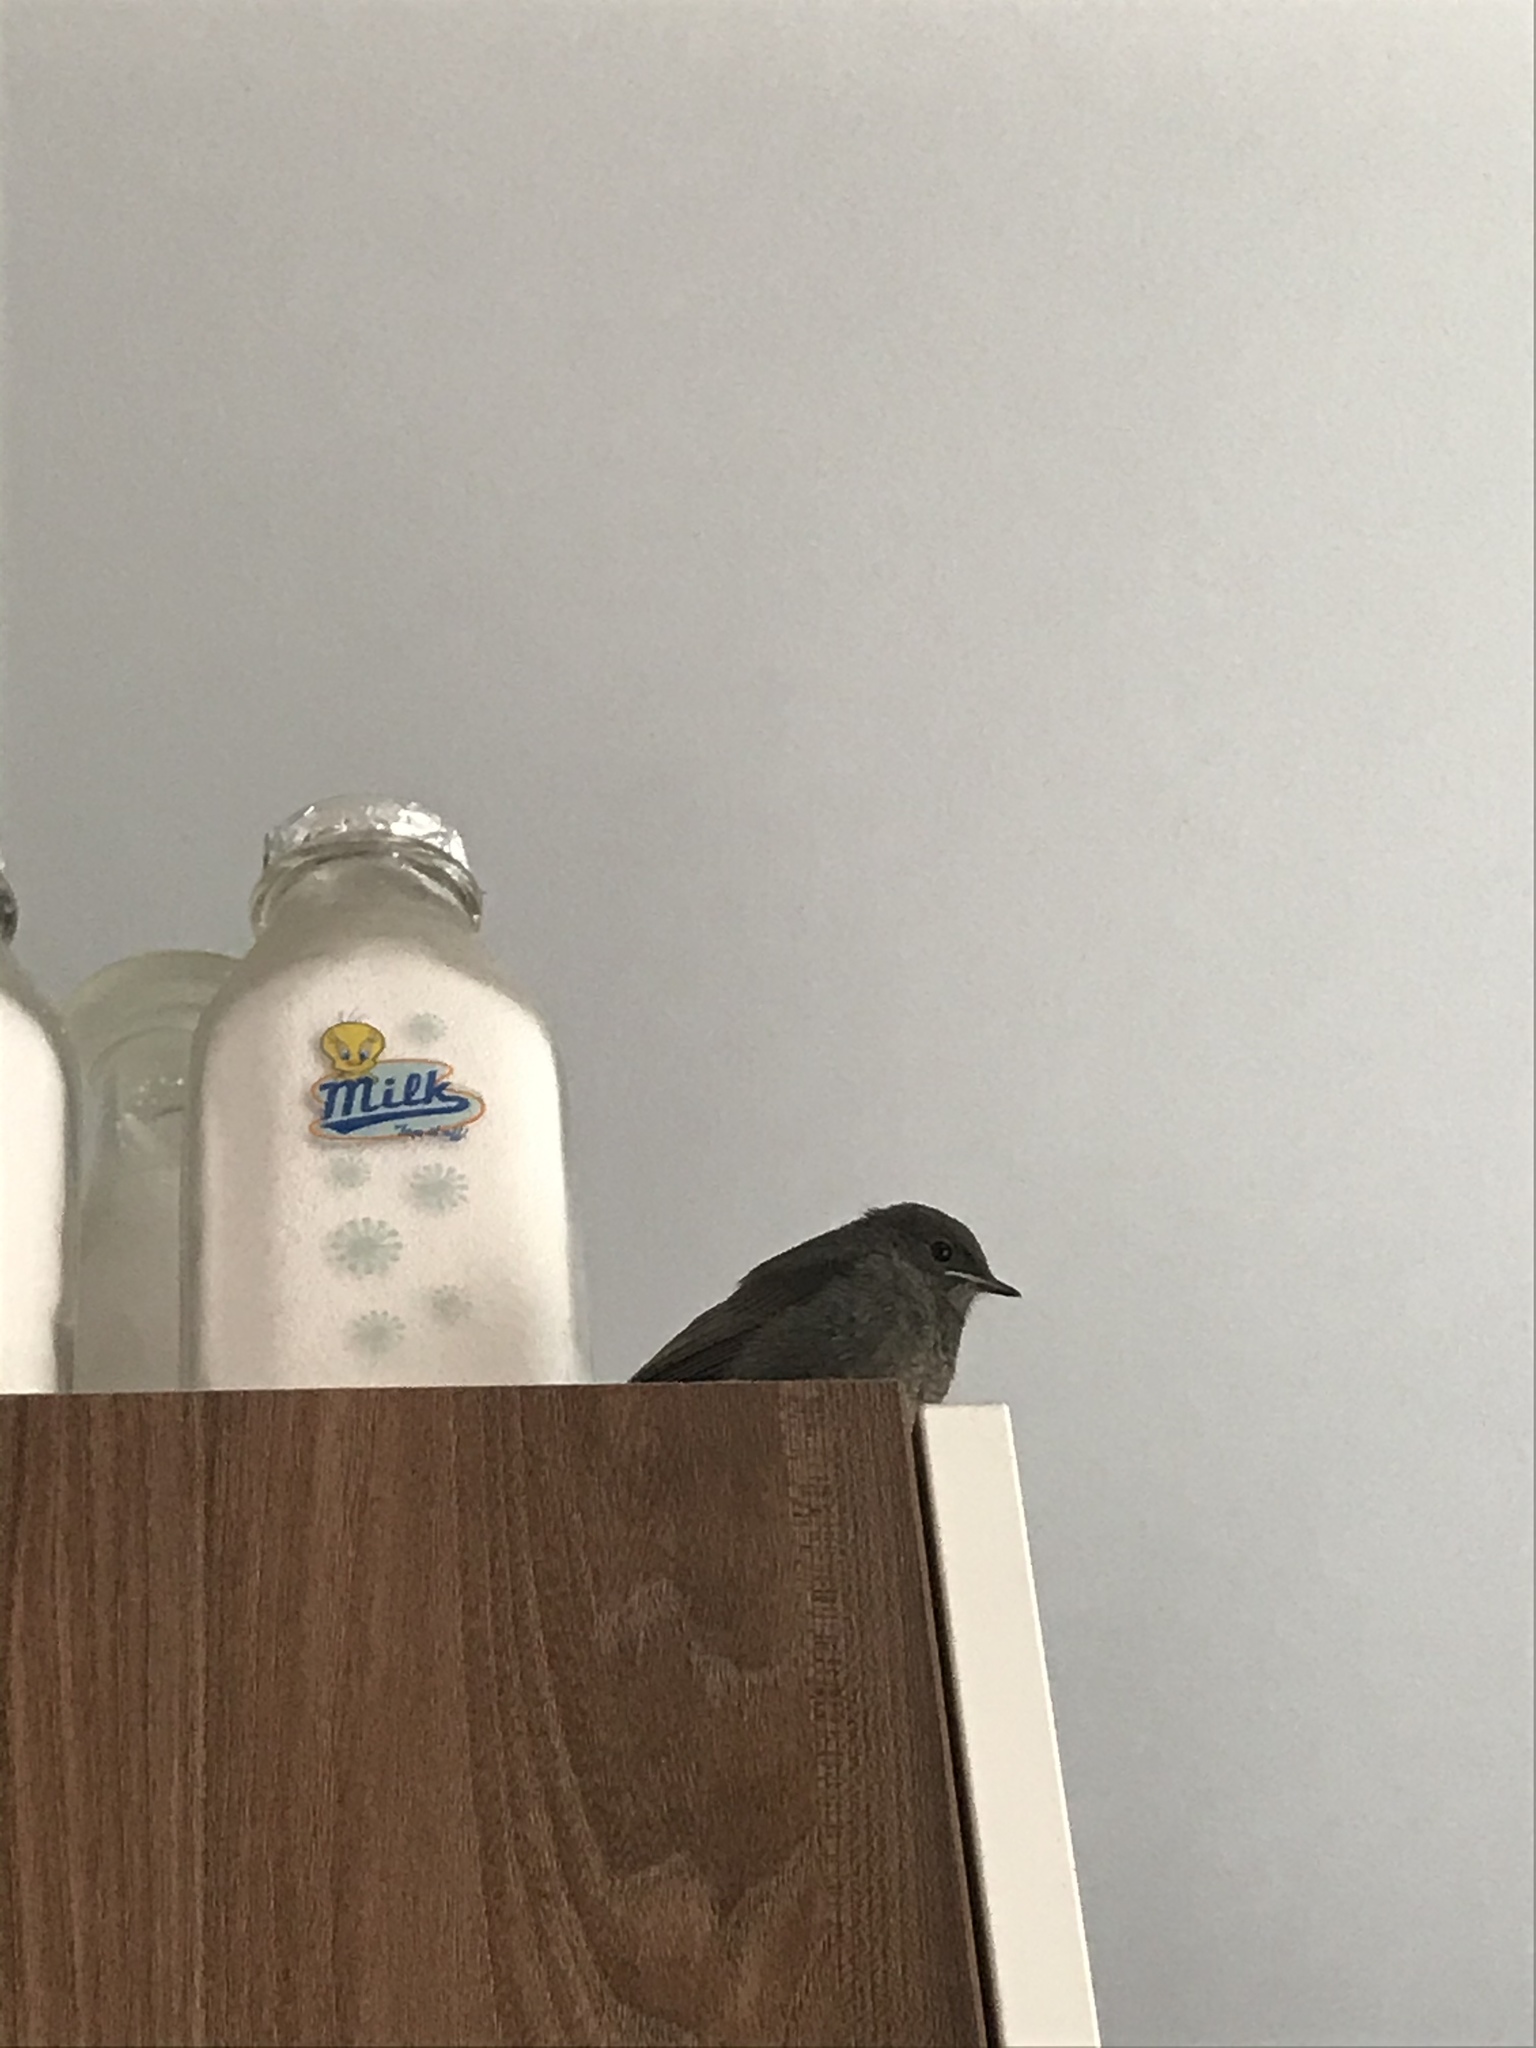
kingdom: Animalia
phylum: Chordata
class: Aves
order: Passeriformes
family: Muscicapidae
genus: Phoenicurus
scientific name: Phoenicurus ochruros
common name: Black redstart
